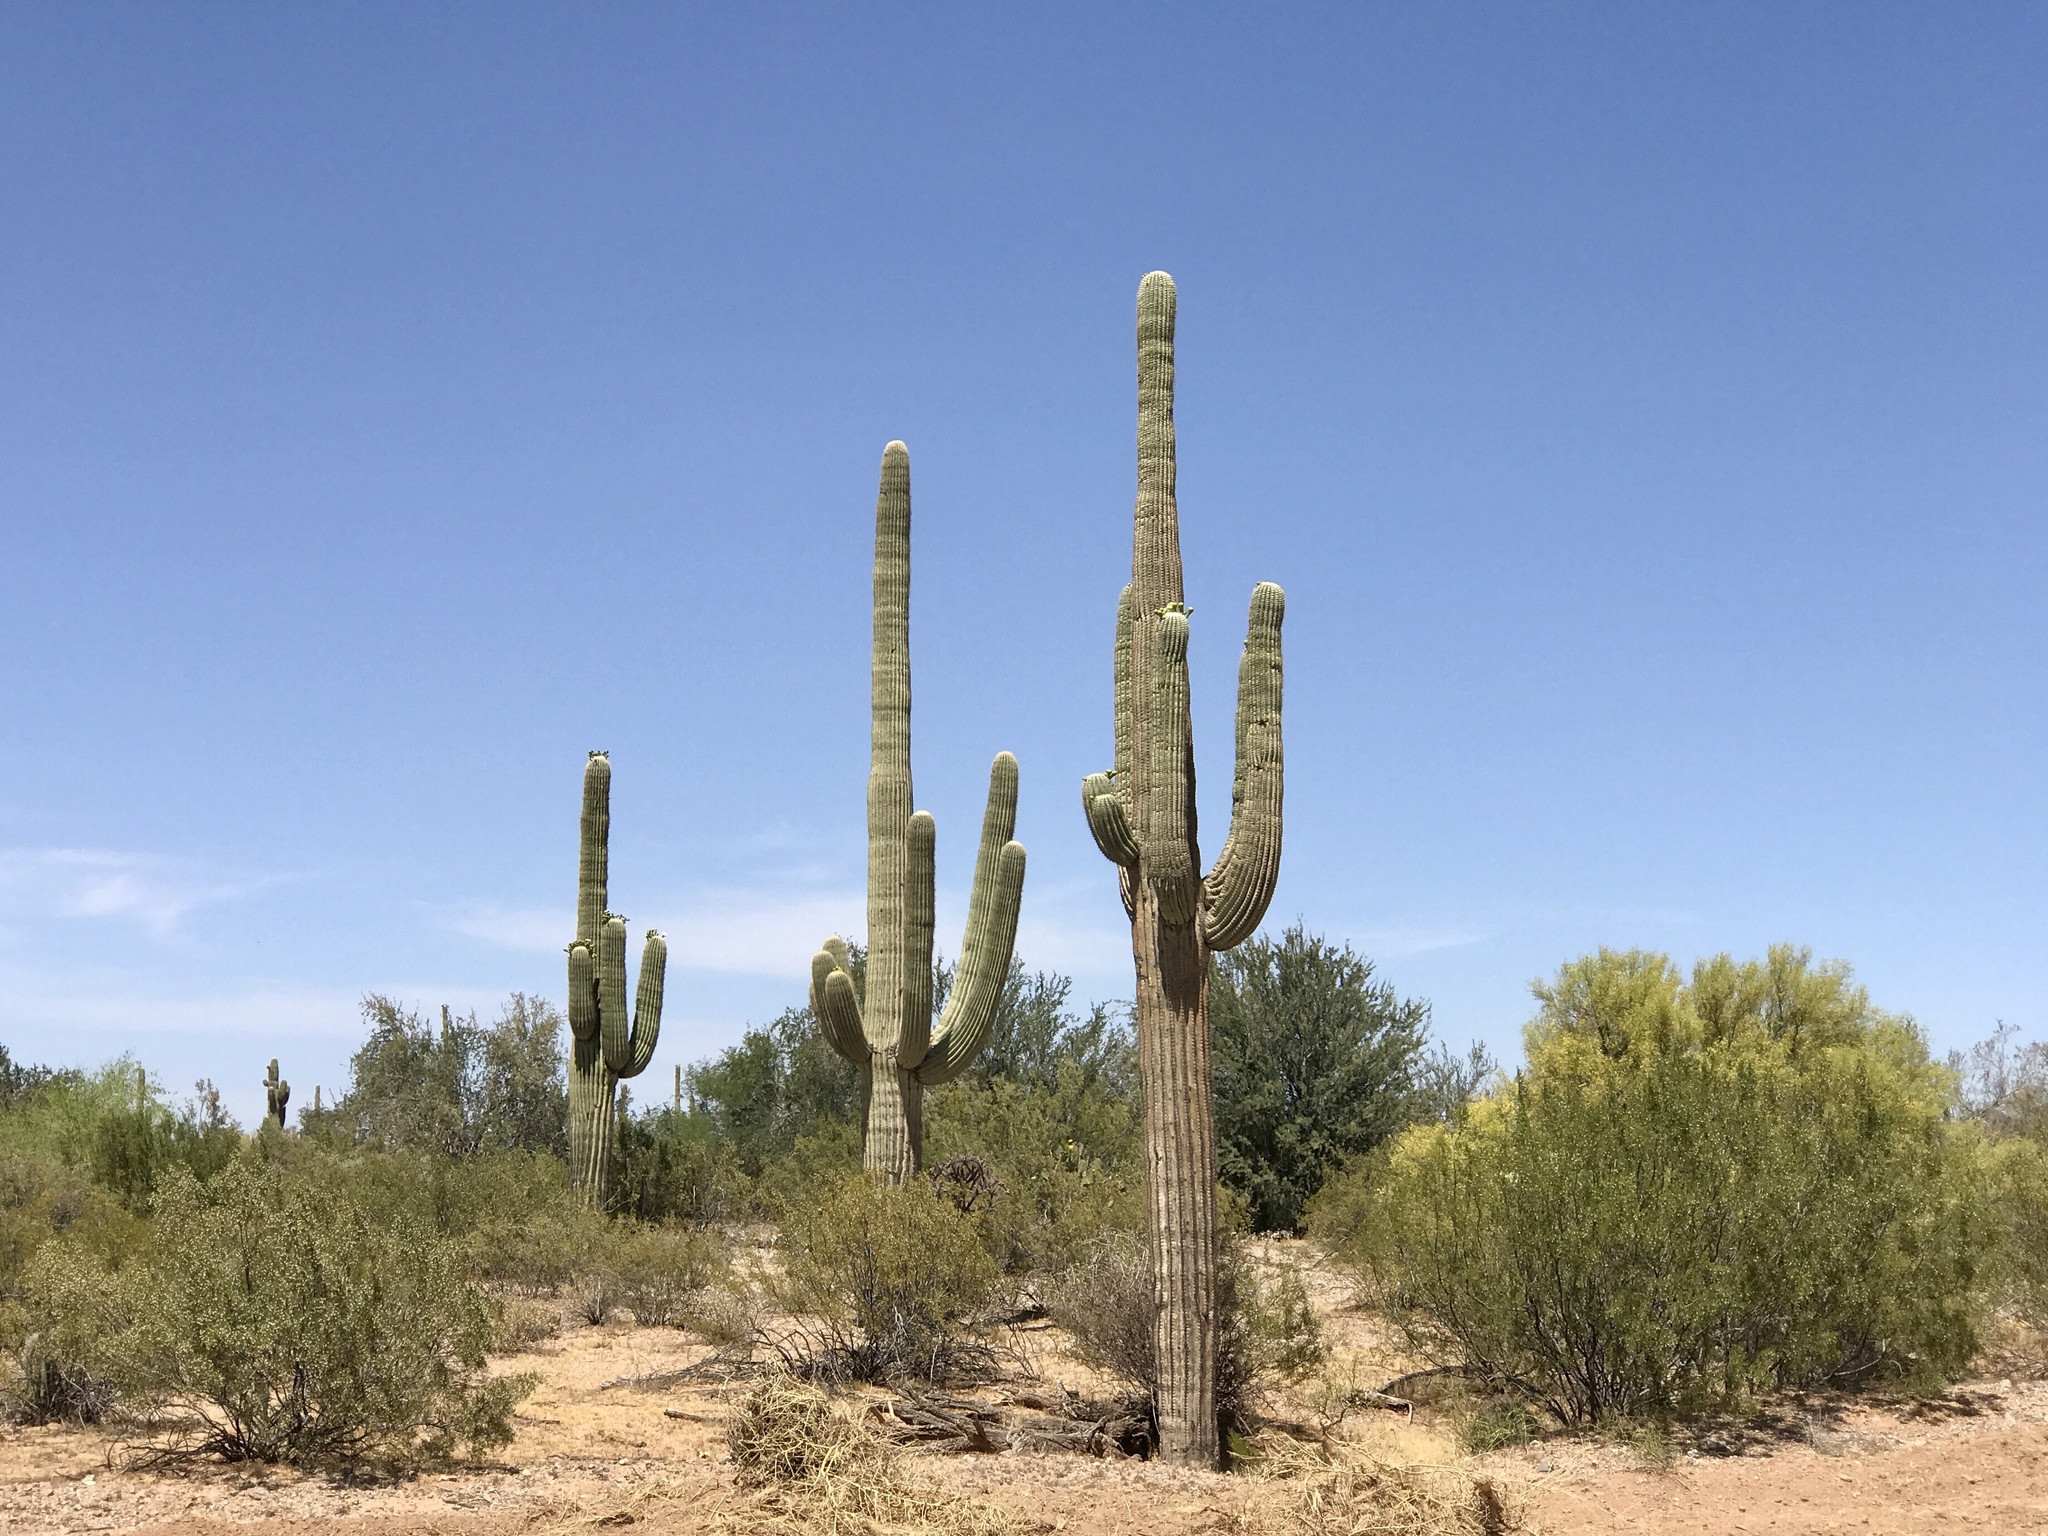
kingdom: Plantae
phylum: Tracheophyta
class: Magnoliopsida
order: Caryophyllales
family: Cactaceae
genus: Carnegiea
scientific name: Carnegiea gigantea
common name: Saguaro
